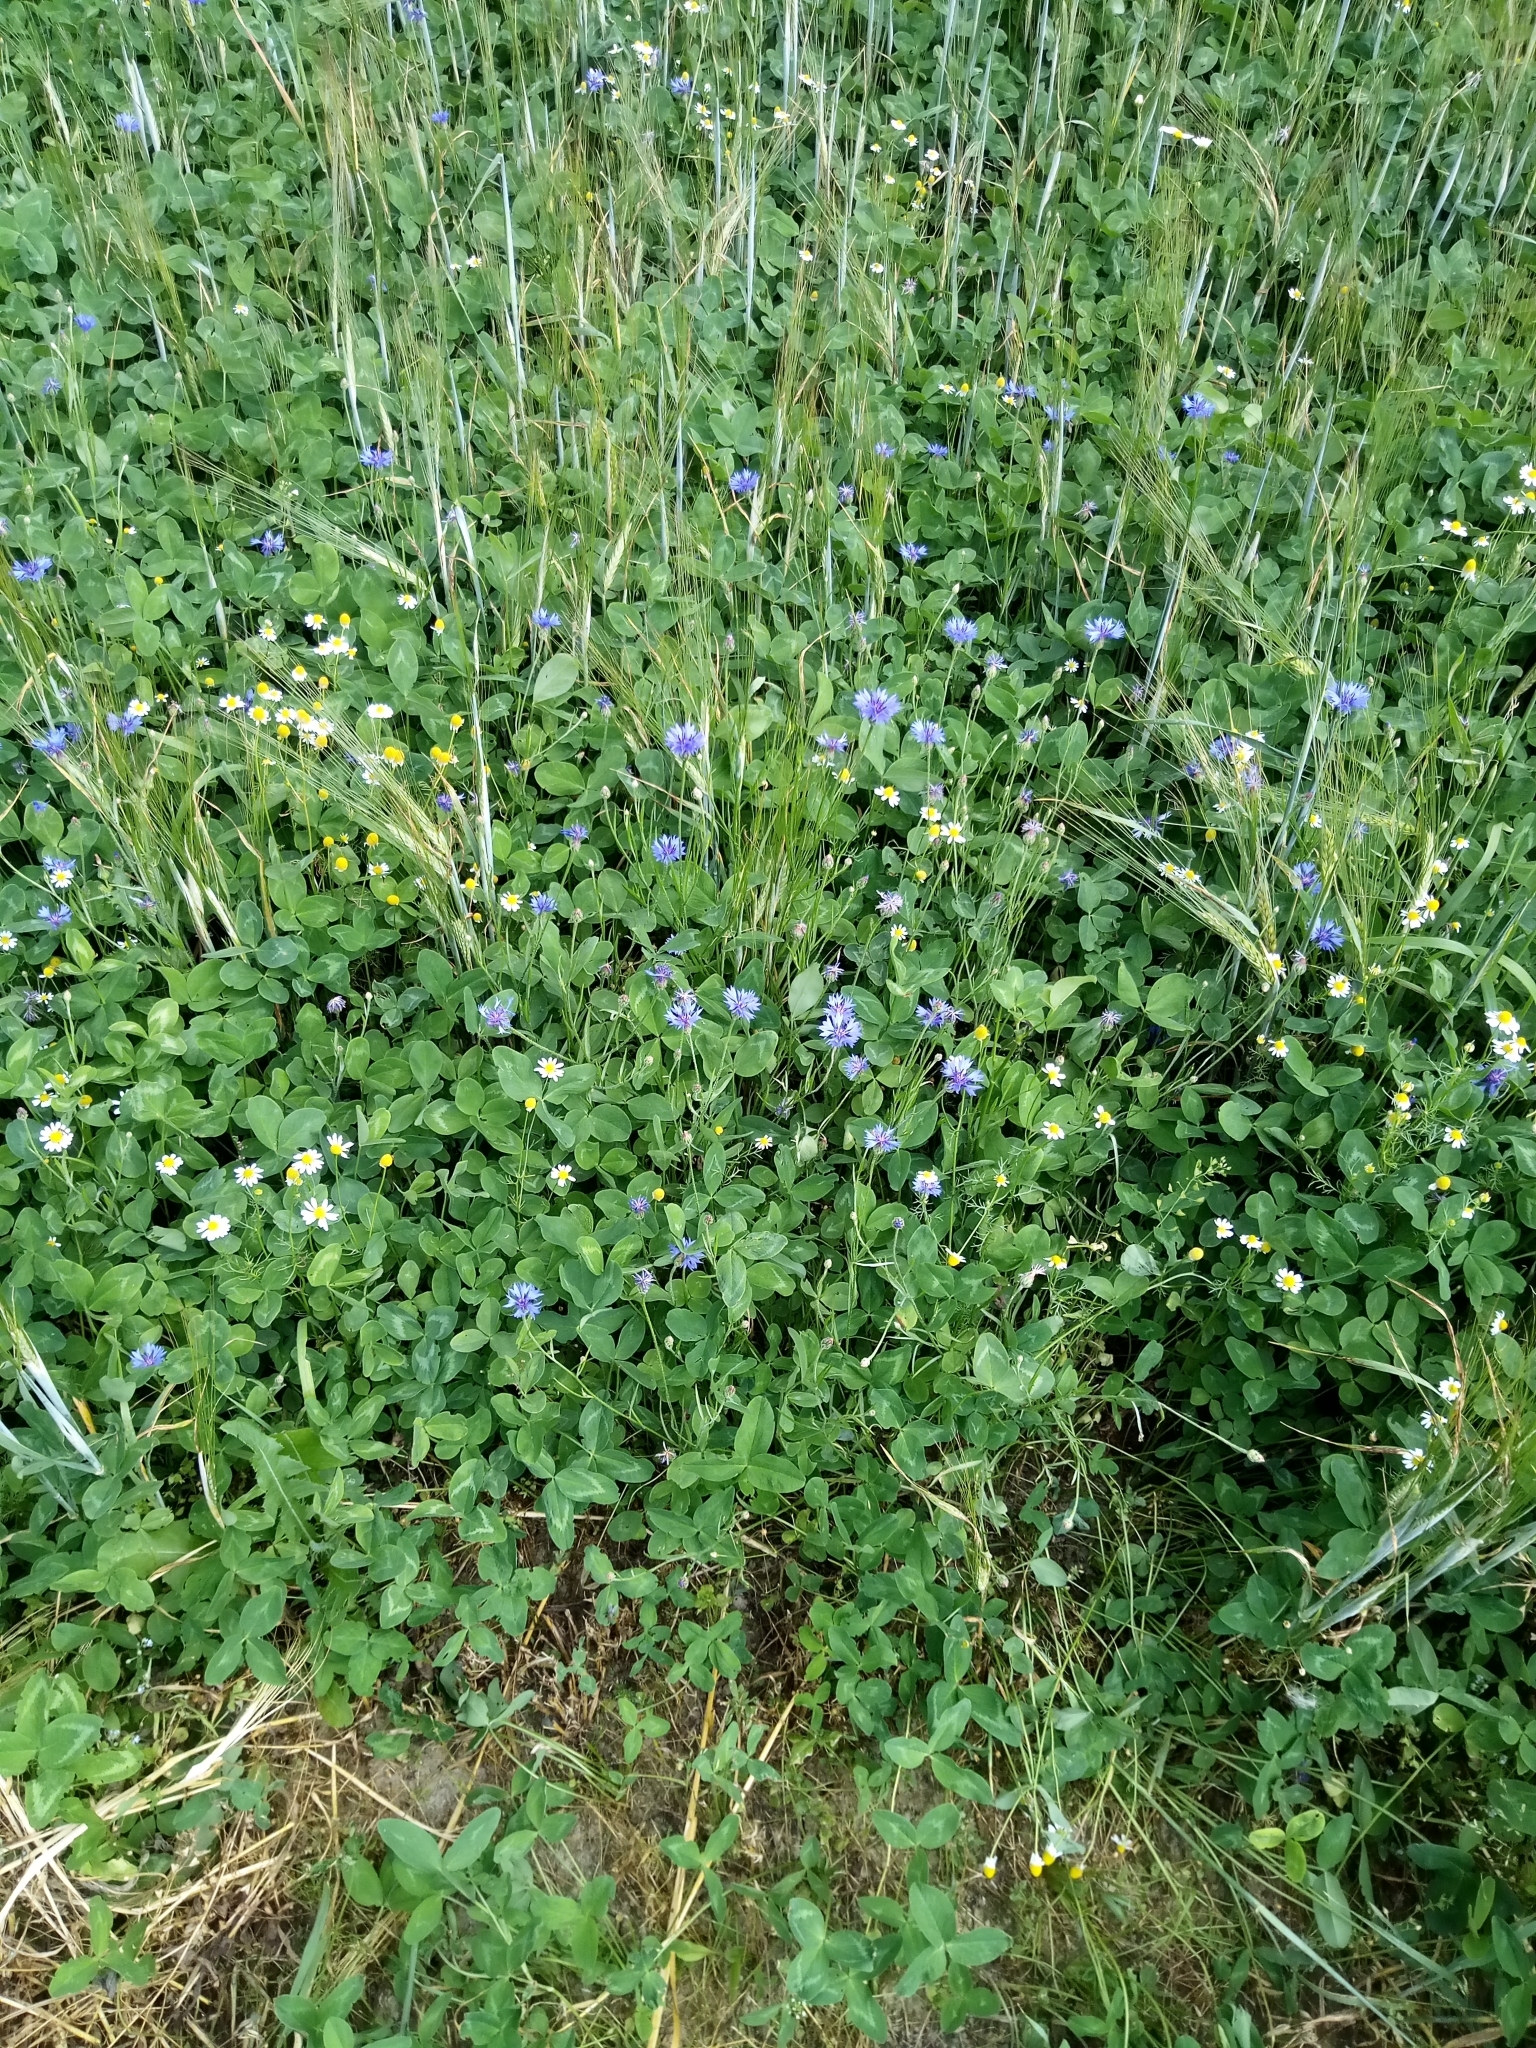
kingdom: Plantae
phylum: Tracheophyta
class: Magnoliopsida
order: Asterales
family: Asteraceae
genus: Centaurea
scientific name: Centaurea cyanus
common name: Cornflower
